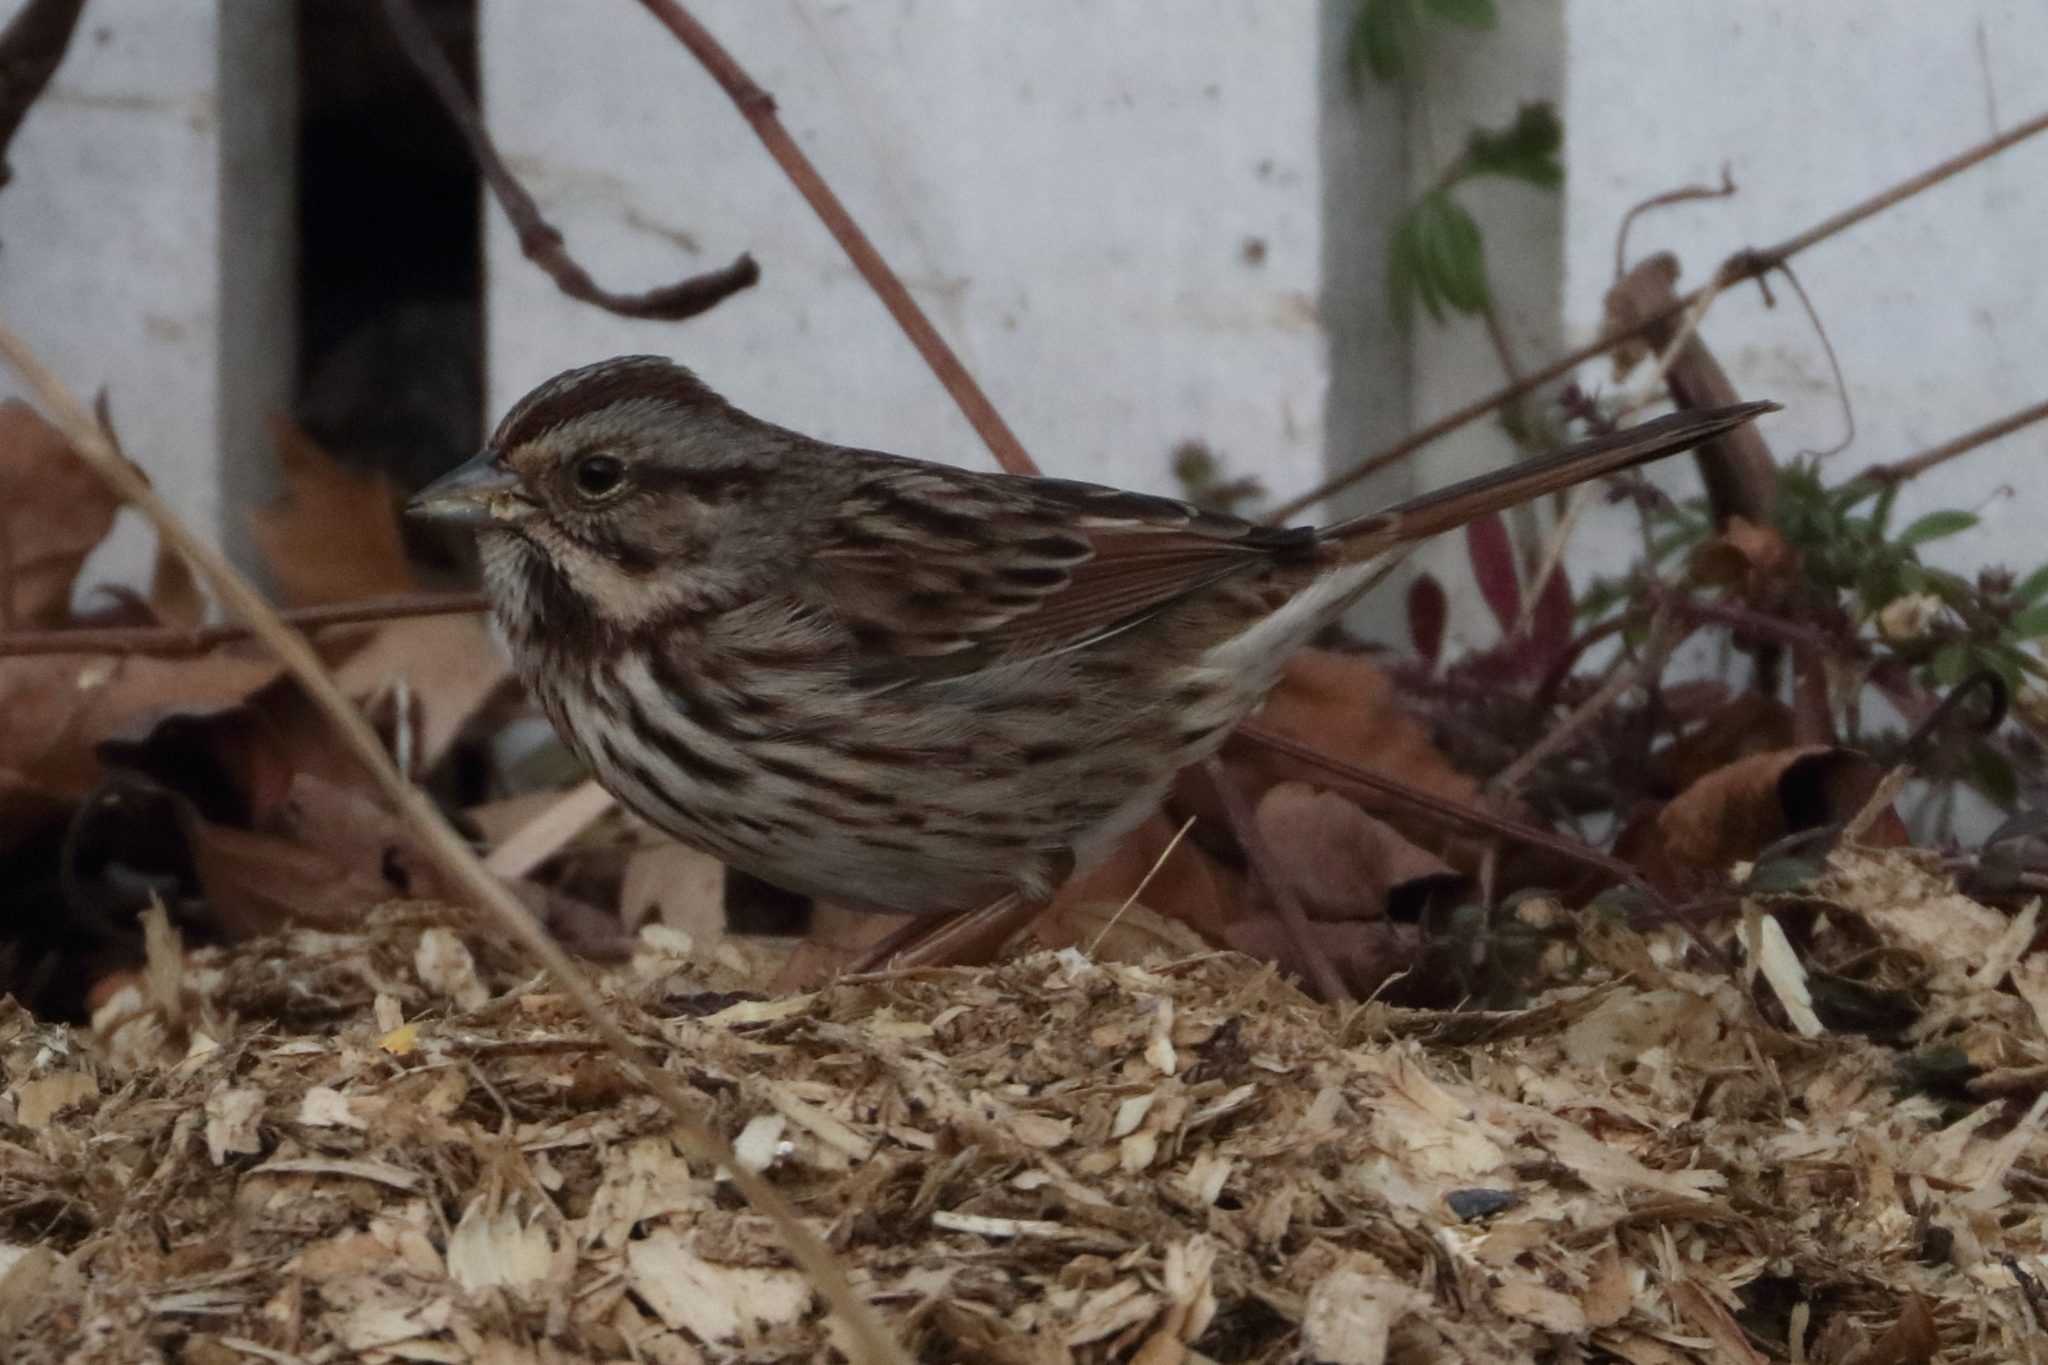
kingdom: Animalia
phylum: Chordata
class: Aves
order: Passeriformes
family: Passerellidae
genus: Melospiza
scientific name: Melospiza melodia
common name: Song sparrow
